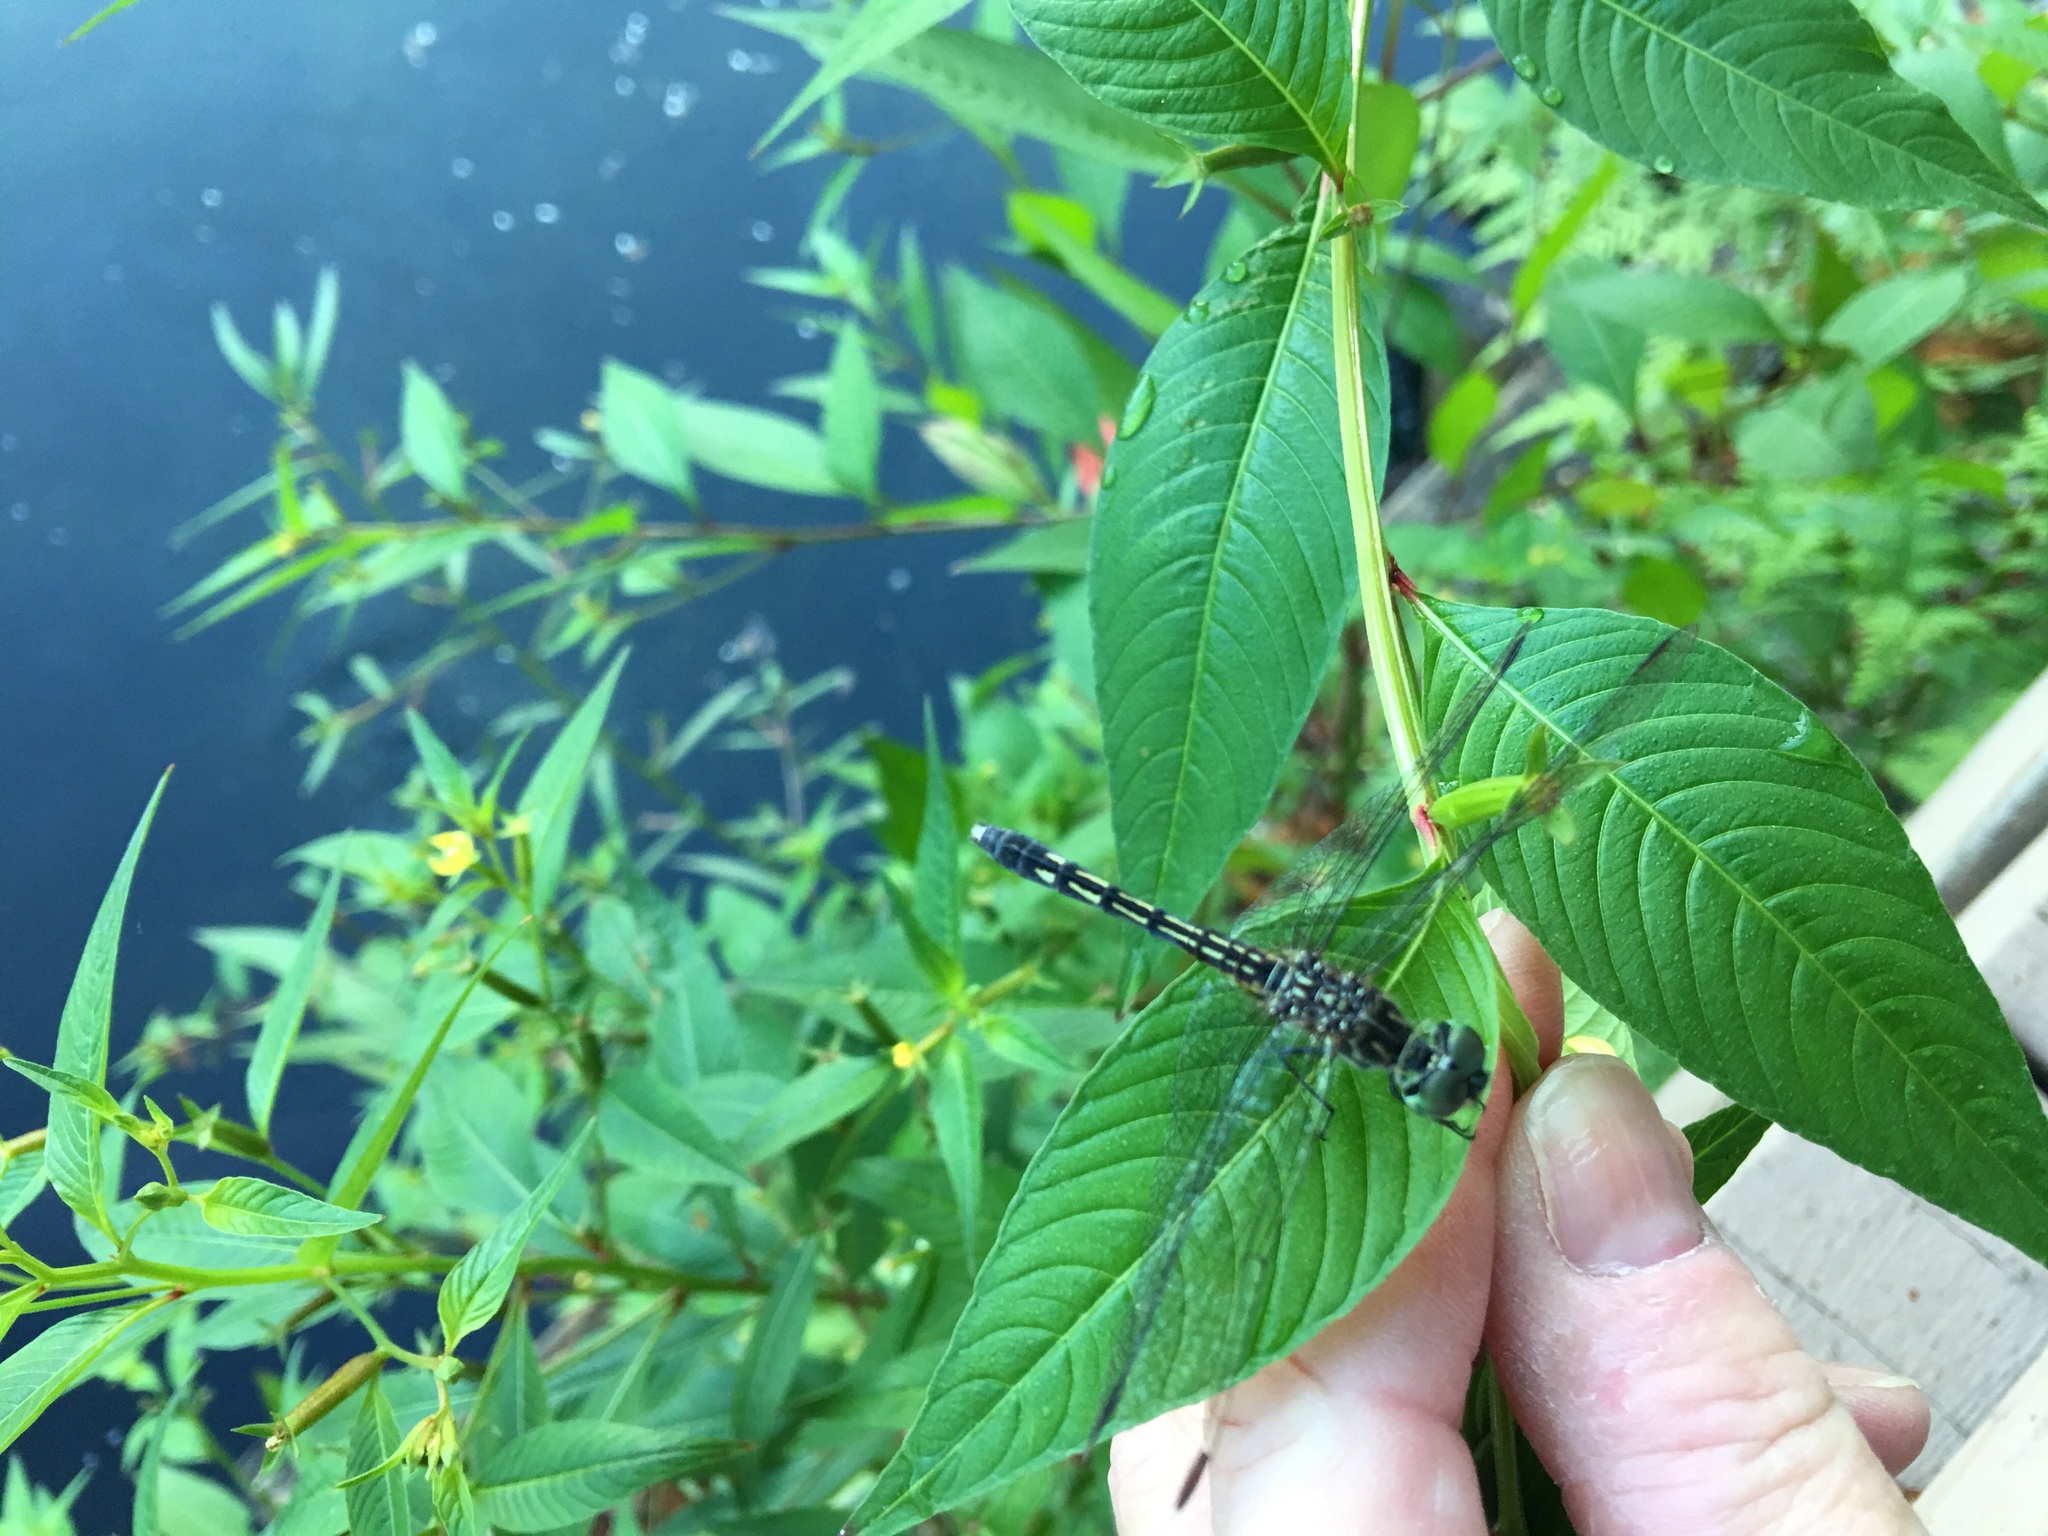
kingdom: Animalia
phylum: Arthropoda
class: Insecta
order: Odonata
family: Libellulidae
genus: Pachydiplax
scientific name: Pachydiplax longipennis
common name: Blue dasher
